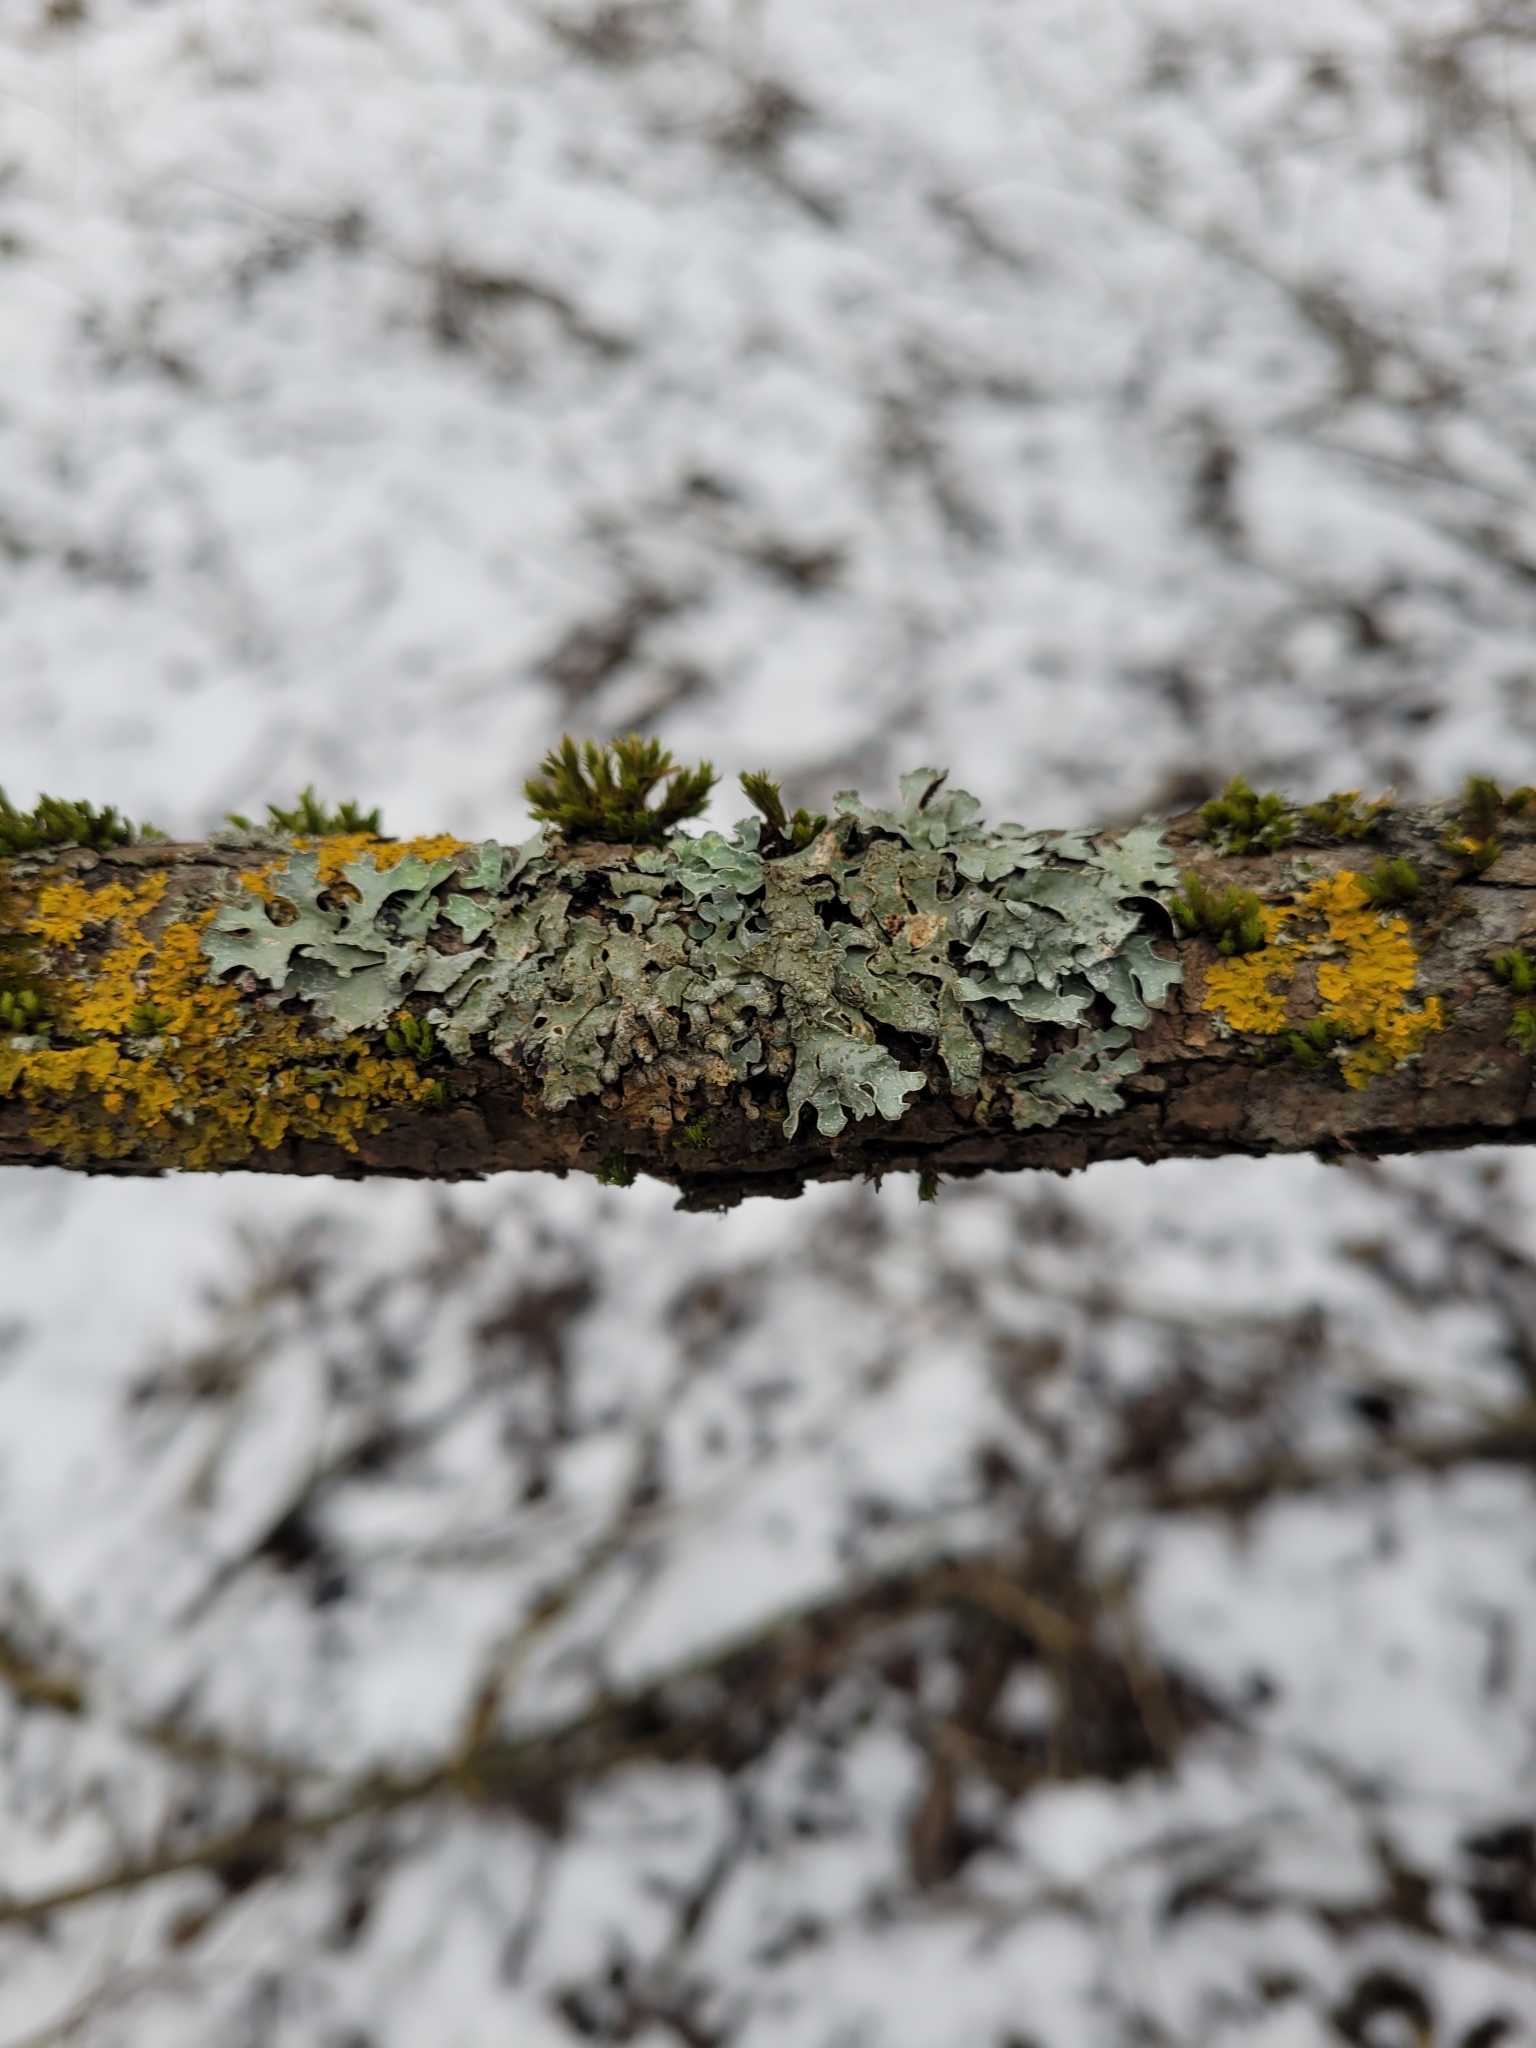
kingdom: Fungi
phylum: Ascomycota
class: Lecanoromycetes
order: Lecanorales
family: Parmeliaceae
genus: Parmelia
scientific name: Parmelia sulcata
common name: Netted shield lichen
